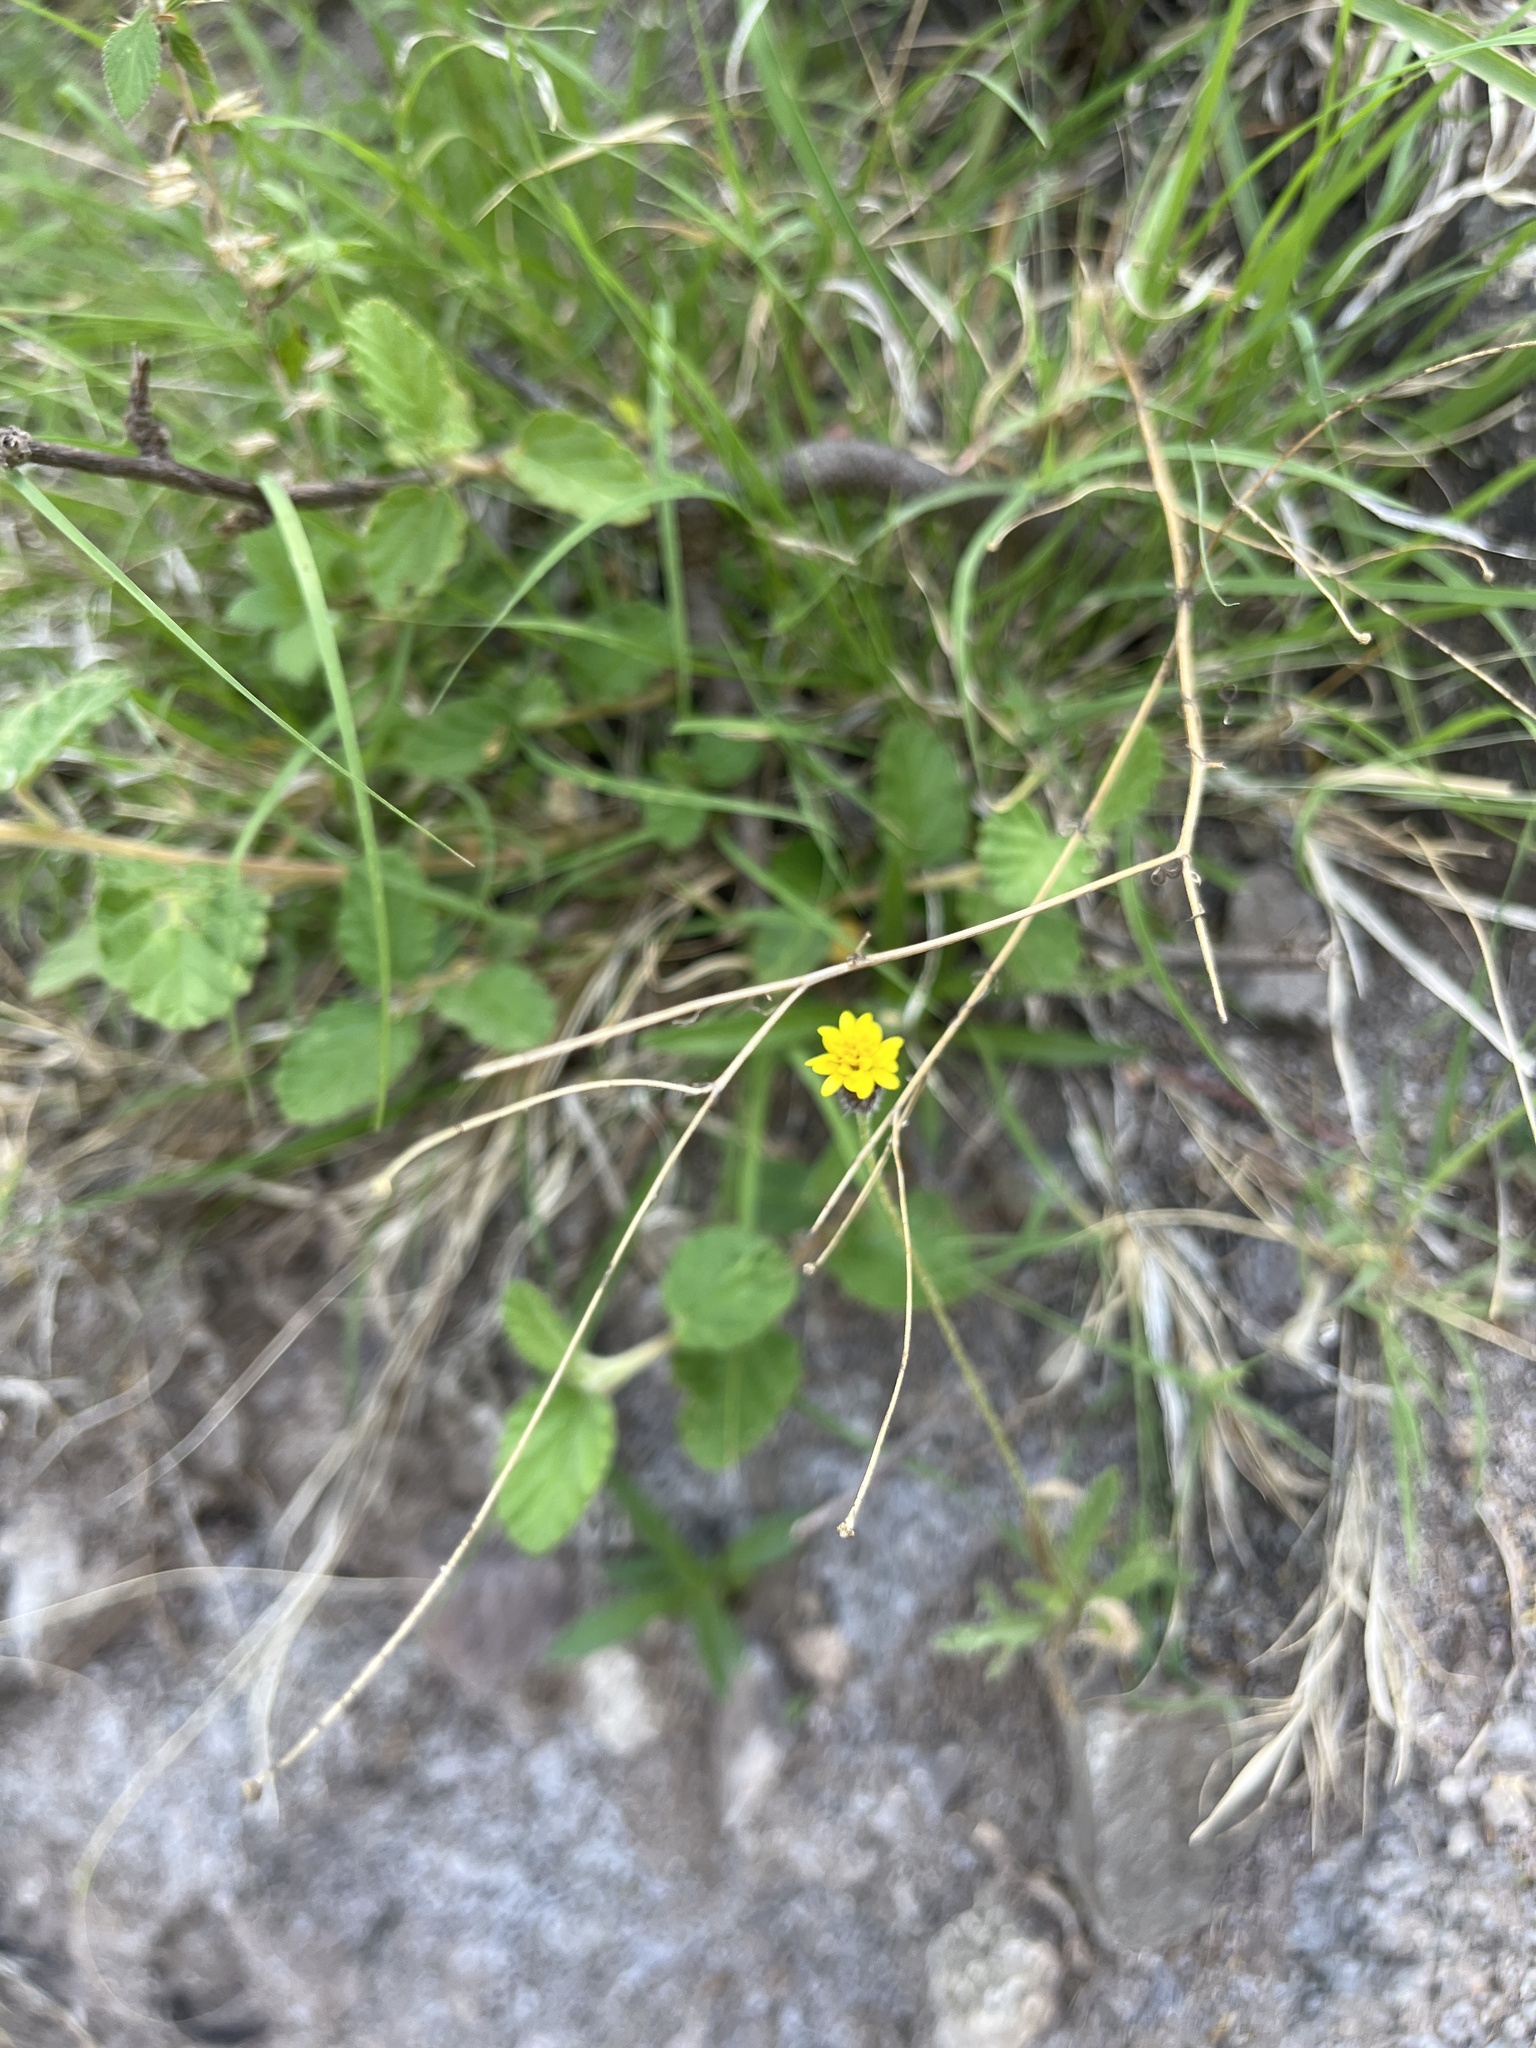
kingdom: Plantae
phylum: Tracheophyta
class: Magnoliopsida
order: Asterales
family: Asteraceae
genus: Tridax
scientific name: Tridax coronopifolia
